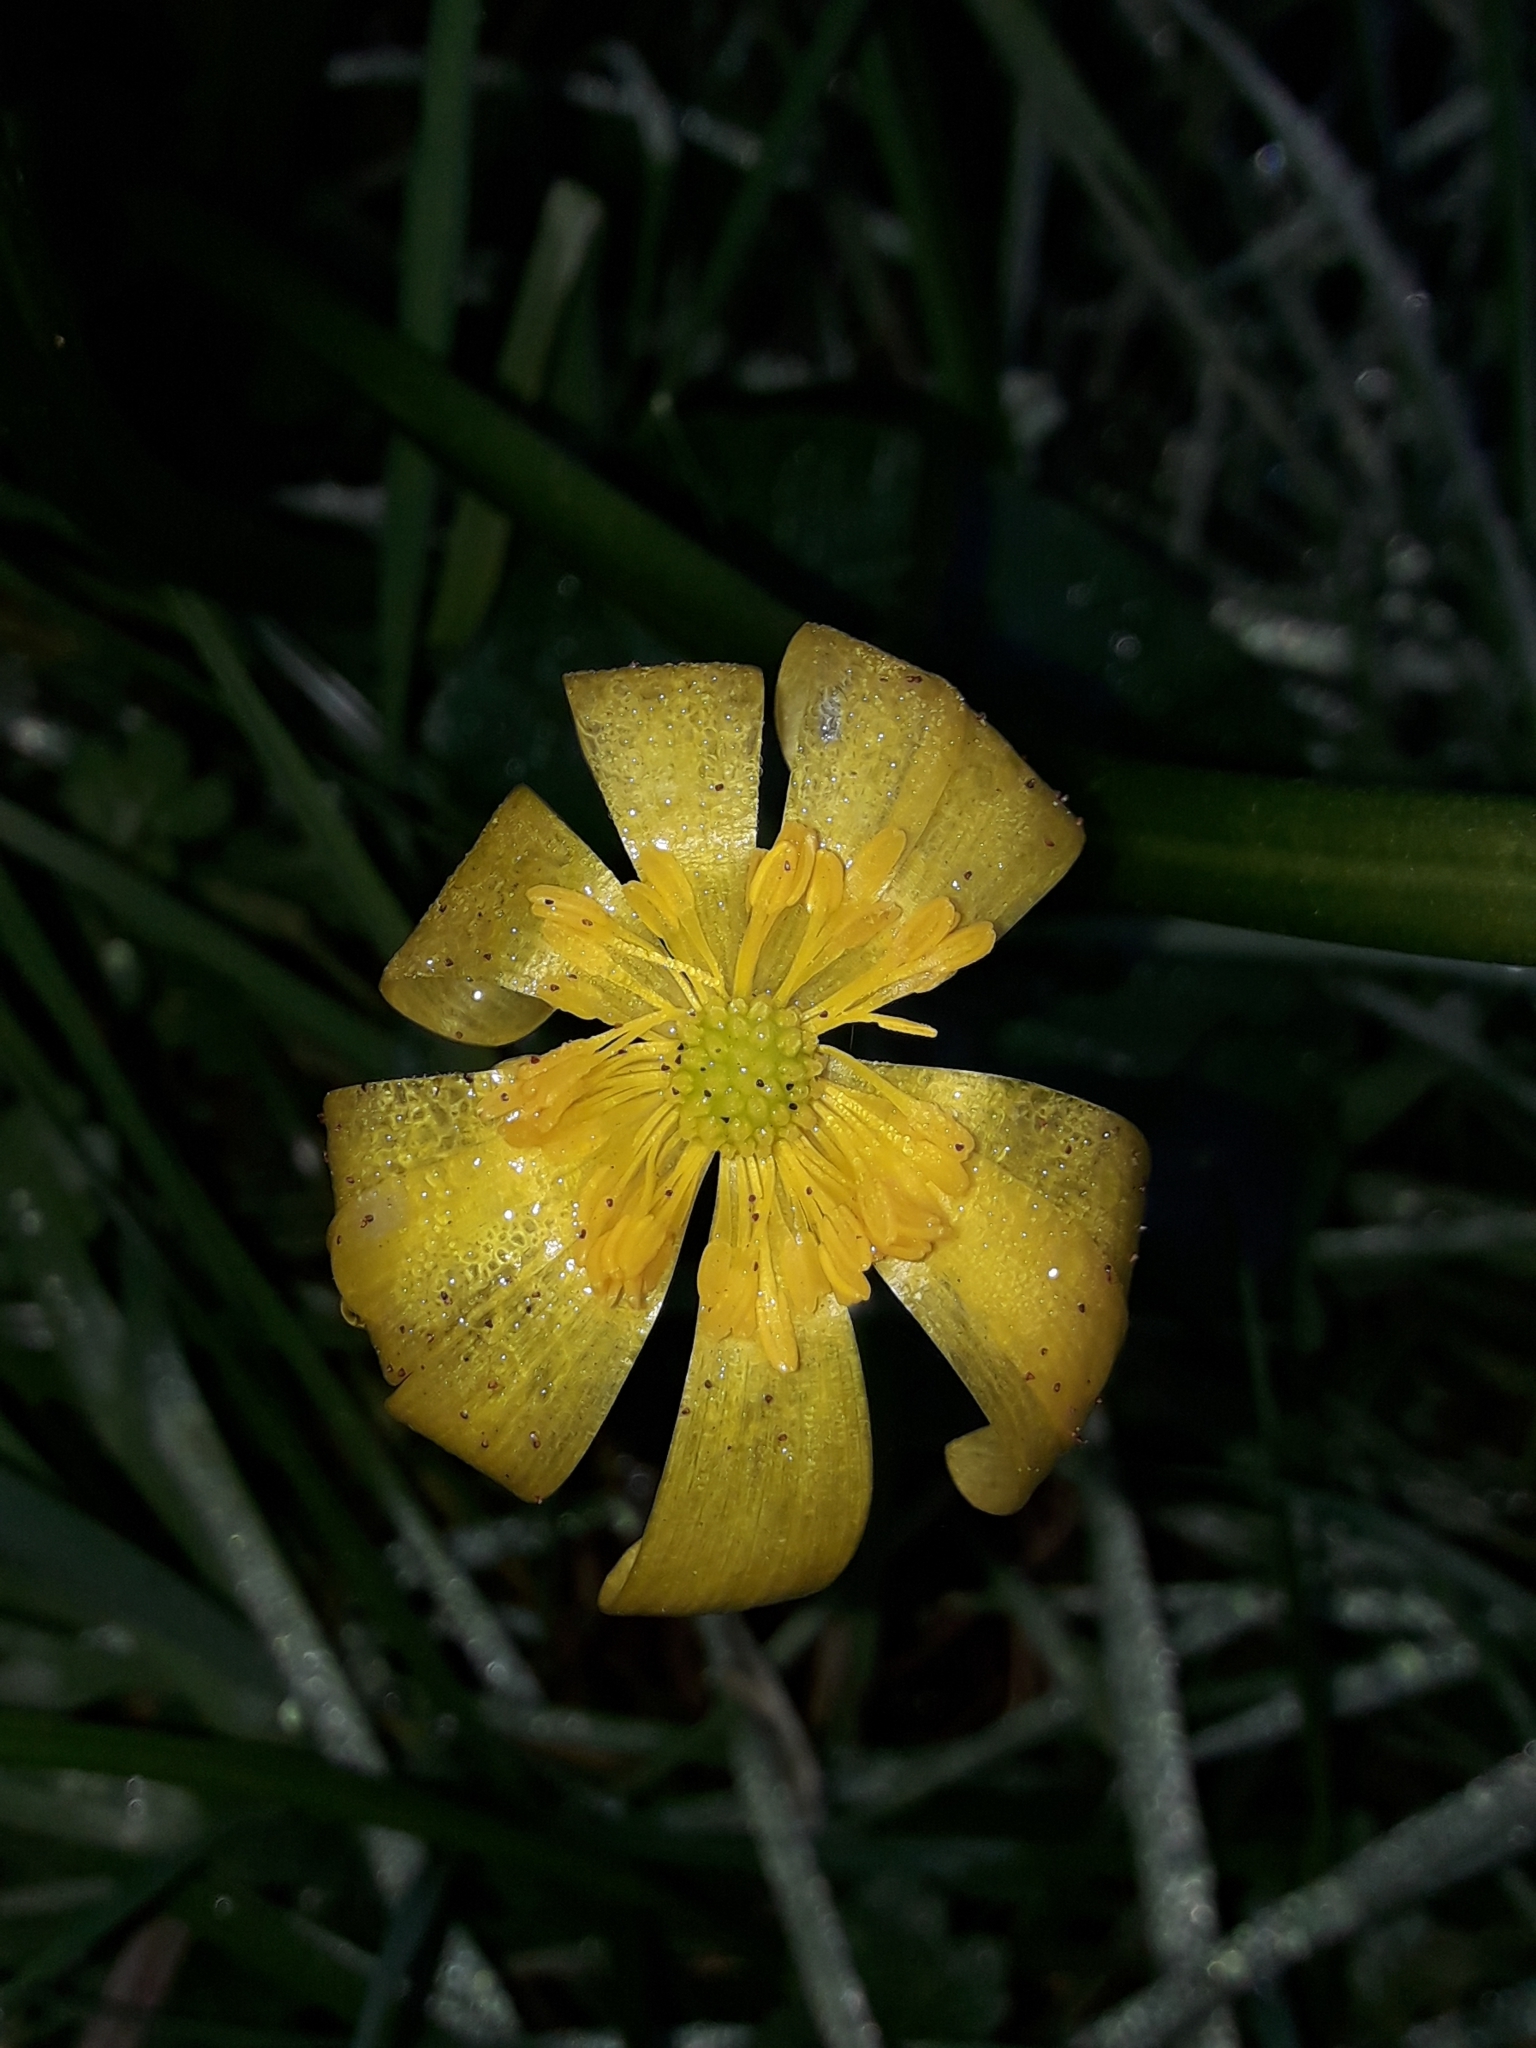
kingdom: Plantae
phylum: Tracheophyta
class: Magnoliopsida
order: Ranunculales
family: Ranunculaceae
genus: Ficaria
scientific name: Ficaria verna
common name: Lesser celandine
